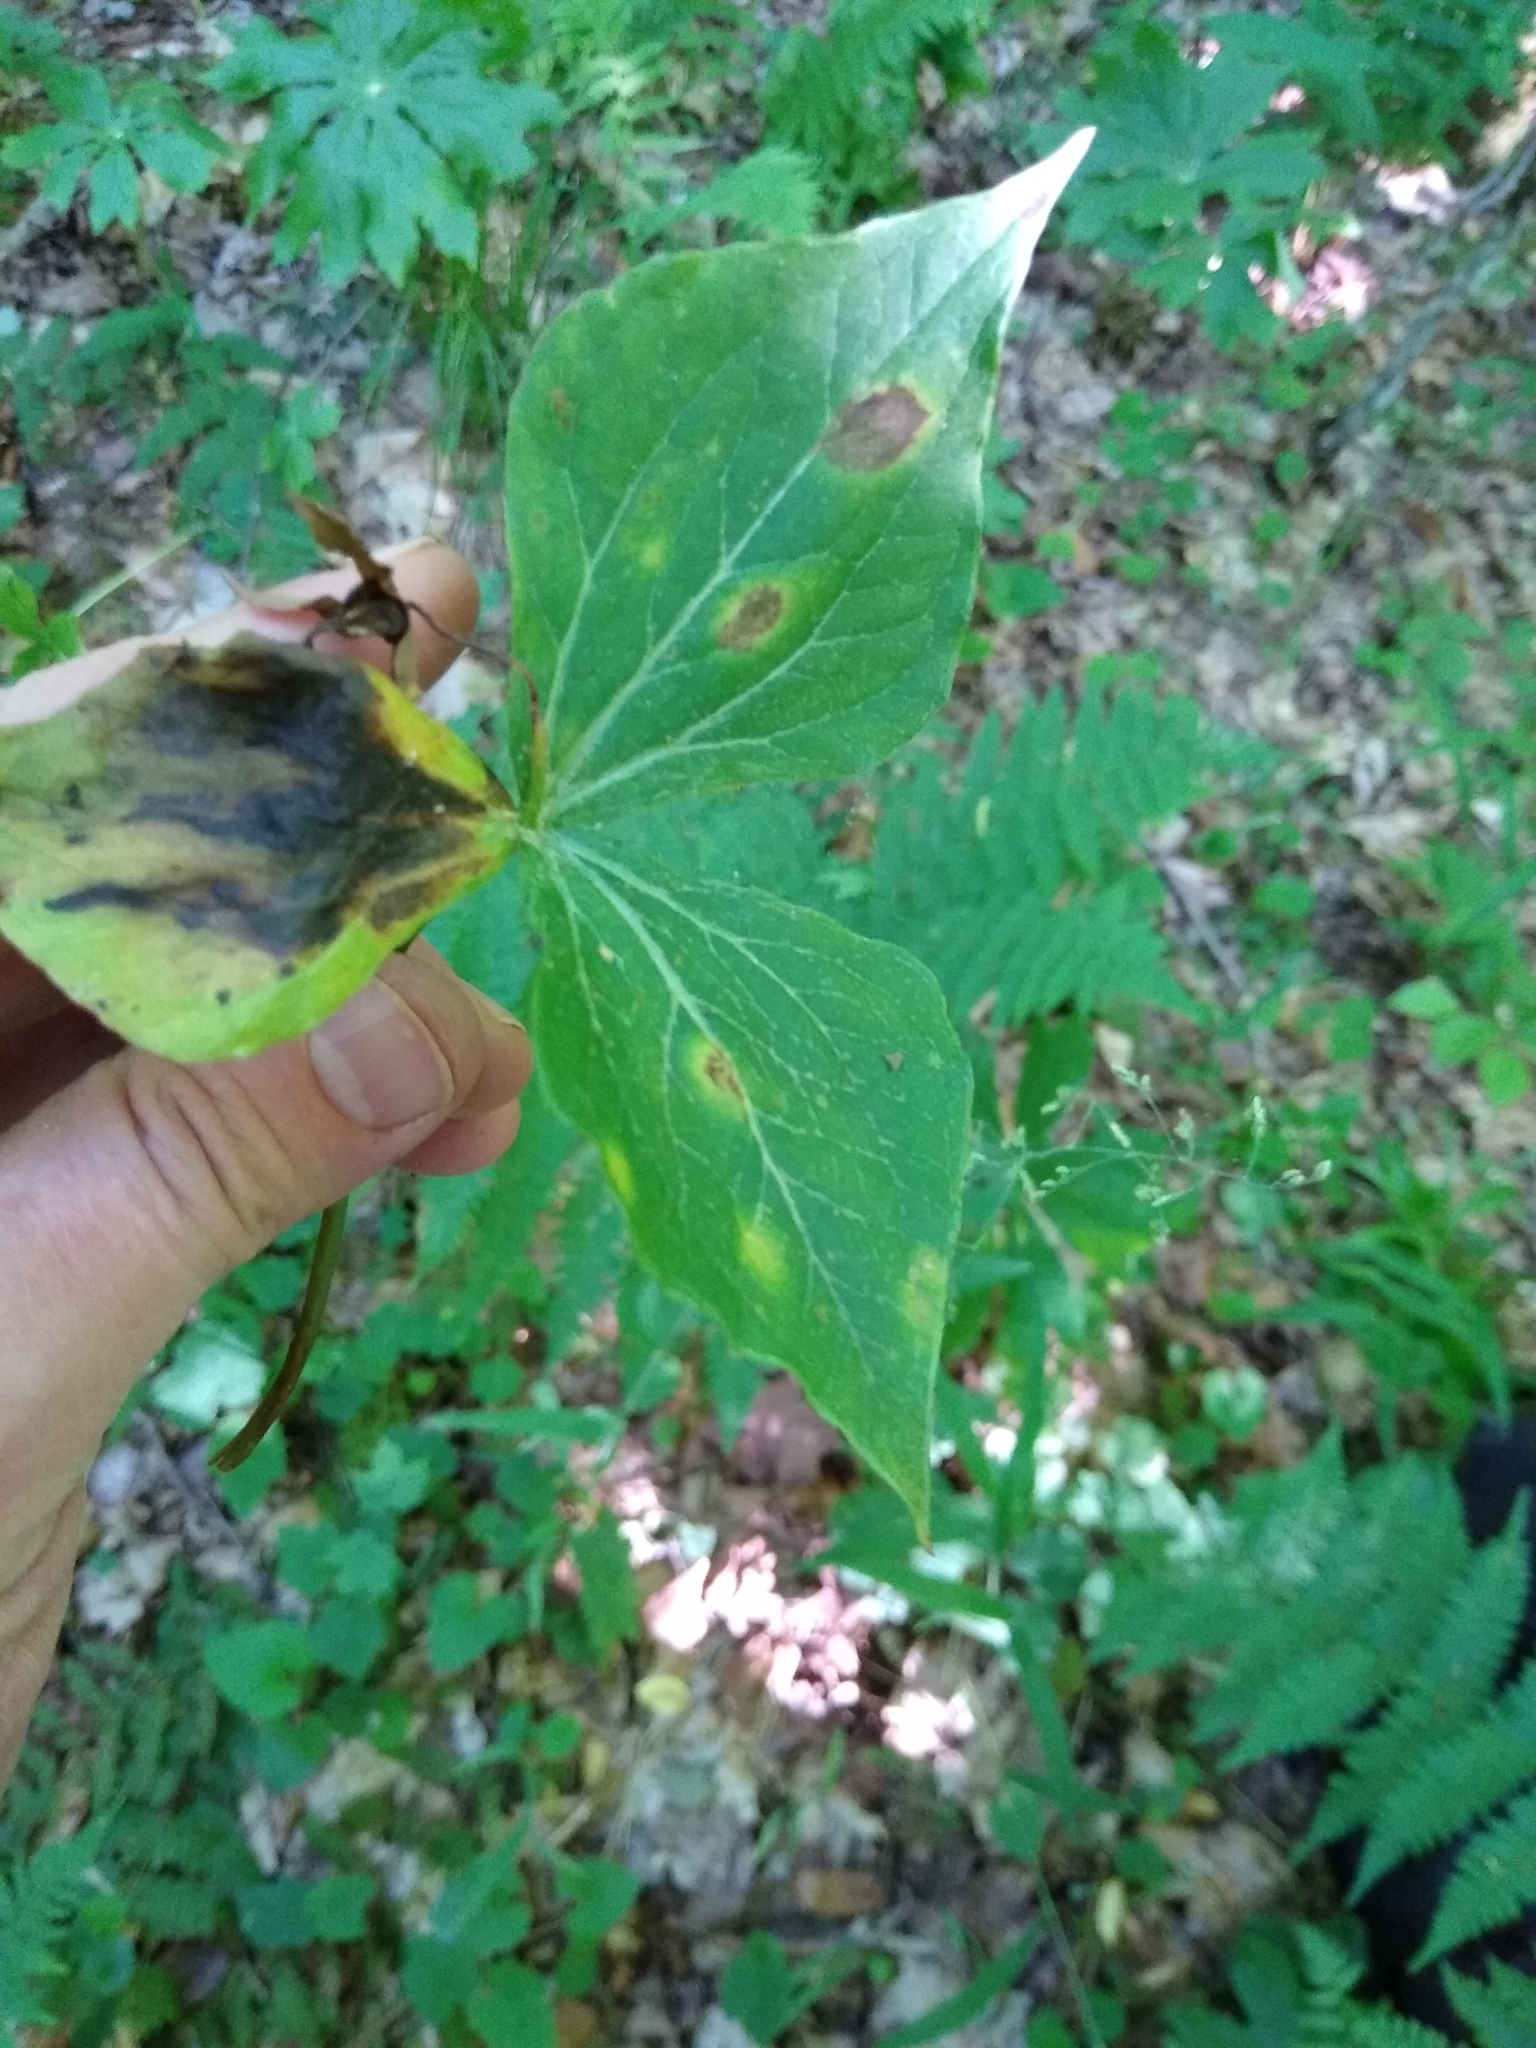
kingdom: Fungi
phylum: Basidiomycota
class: Pucciniomycetes
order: Pucciniales
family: Endoraeciaceae
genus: Endoraecium
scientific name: Endoraecium phyllodiorum
